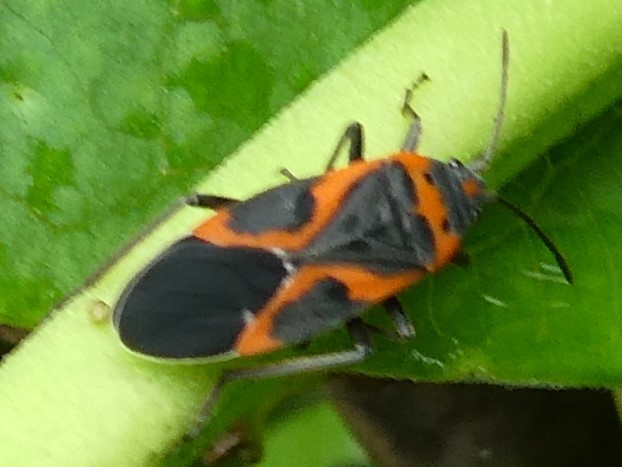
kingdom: Animalia
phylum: Arthropoda
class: Insecta
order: Hemiptera
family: Lygaeidae
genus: Lygaeus
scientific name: Lygaeus kalmii
